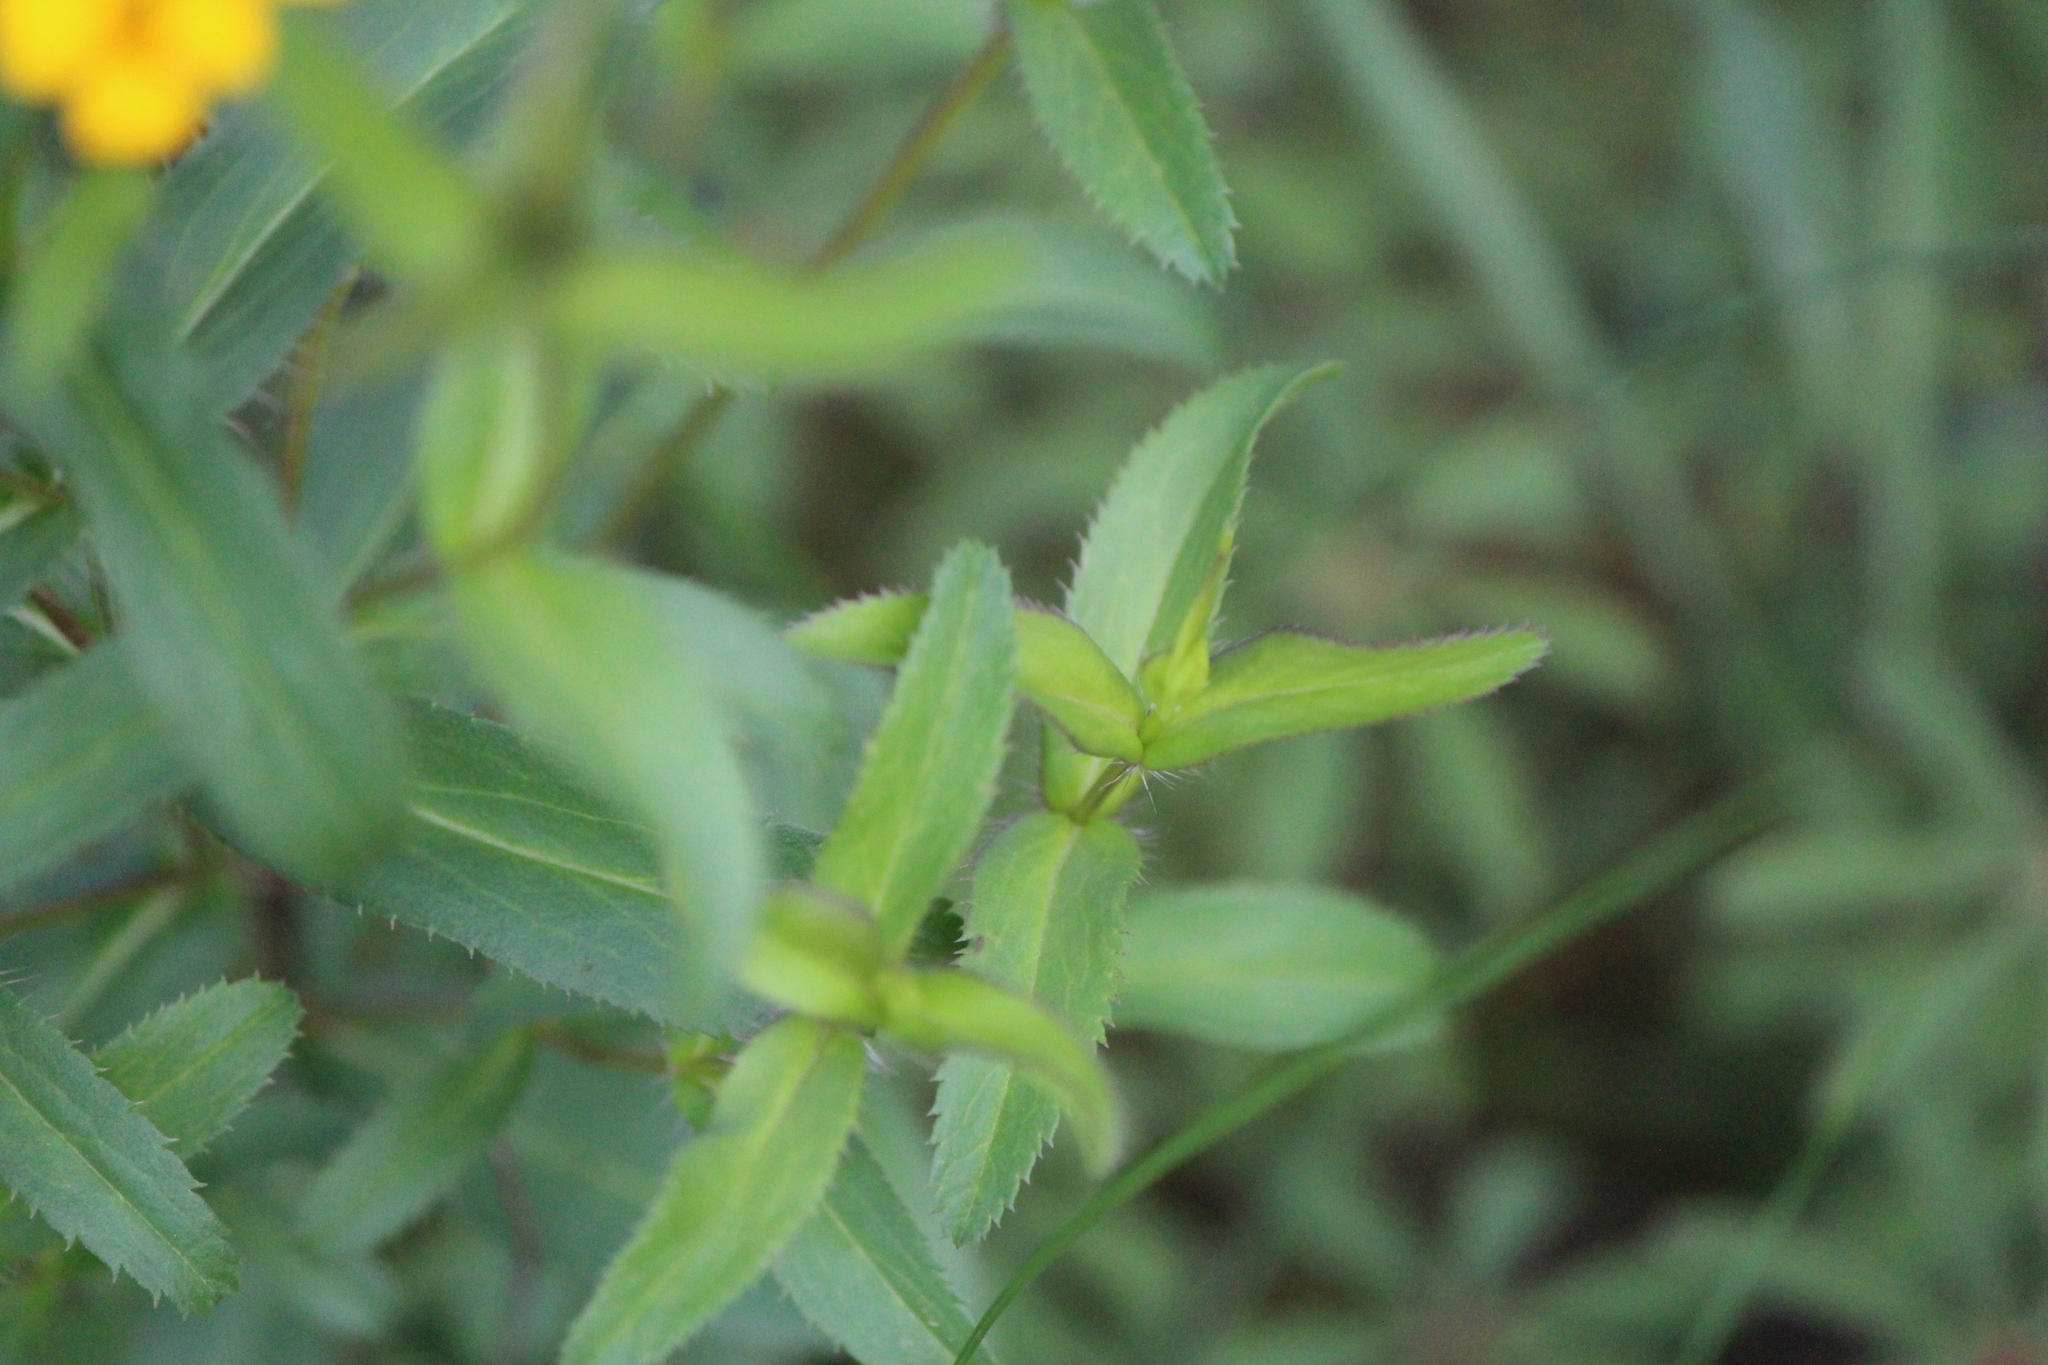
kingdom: Plantae
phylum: Tracheophyta
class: Magnoliopsida
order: Asterales
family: Asteraceae
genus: Tagetes
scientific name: Tagetes lucida
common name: Sweetscented marigold
